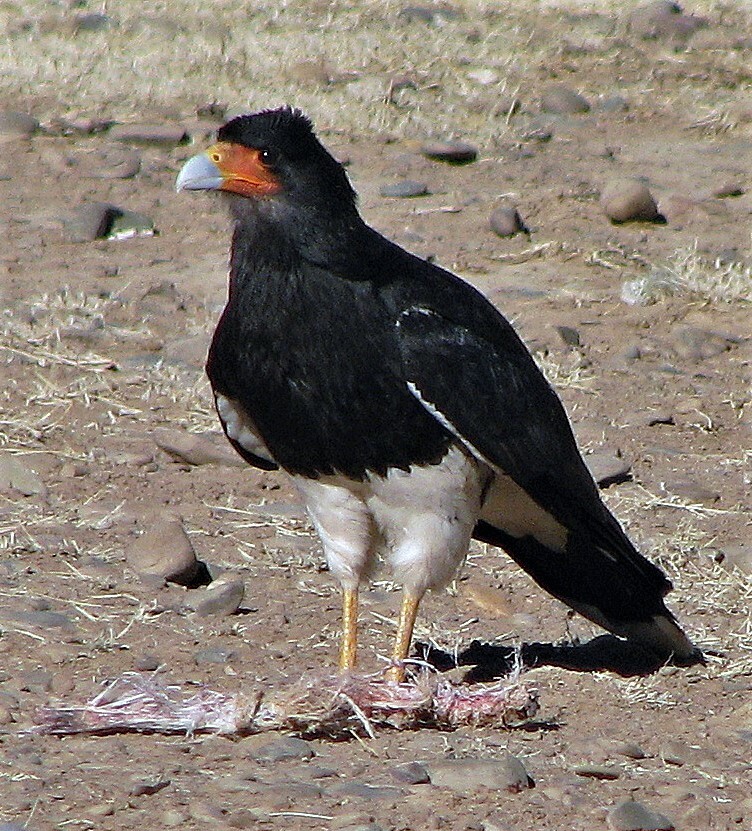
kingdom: Animalia
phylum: Chordata
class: Aves
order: Falconiformes
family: Falconidae
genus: Daptrius
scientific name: Daptrius
